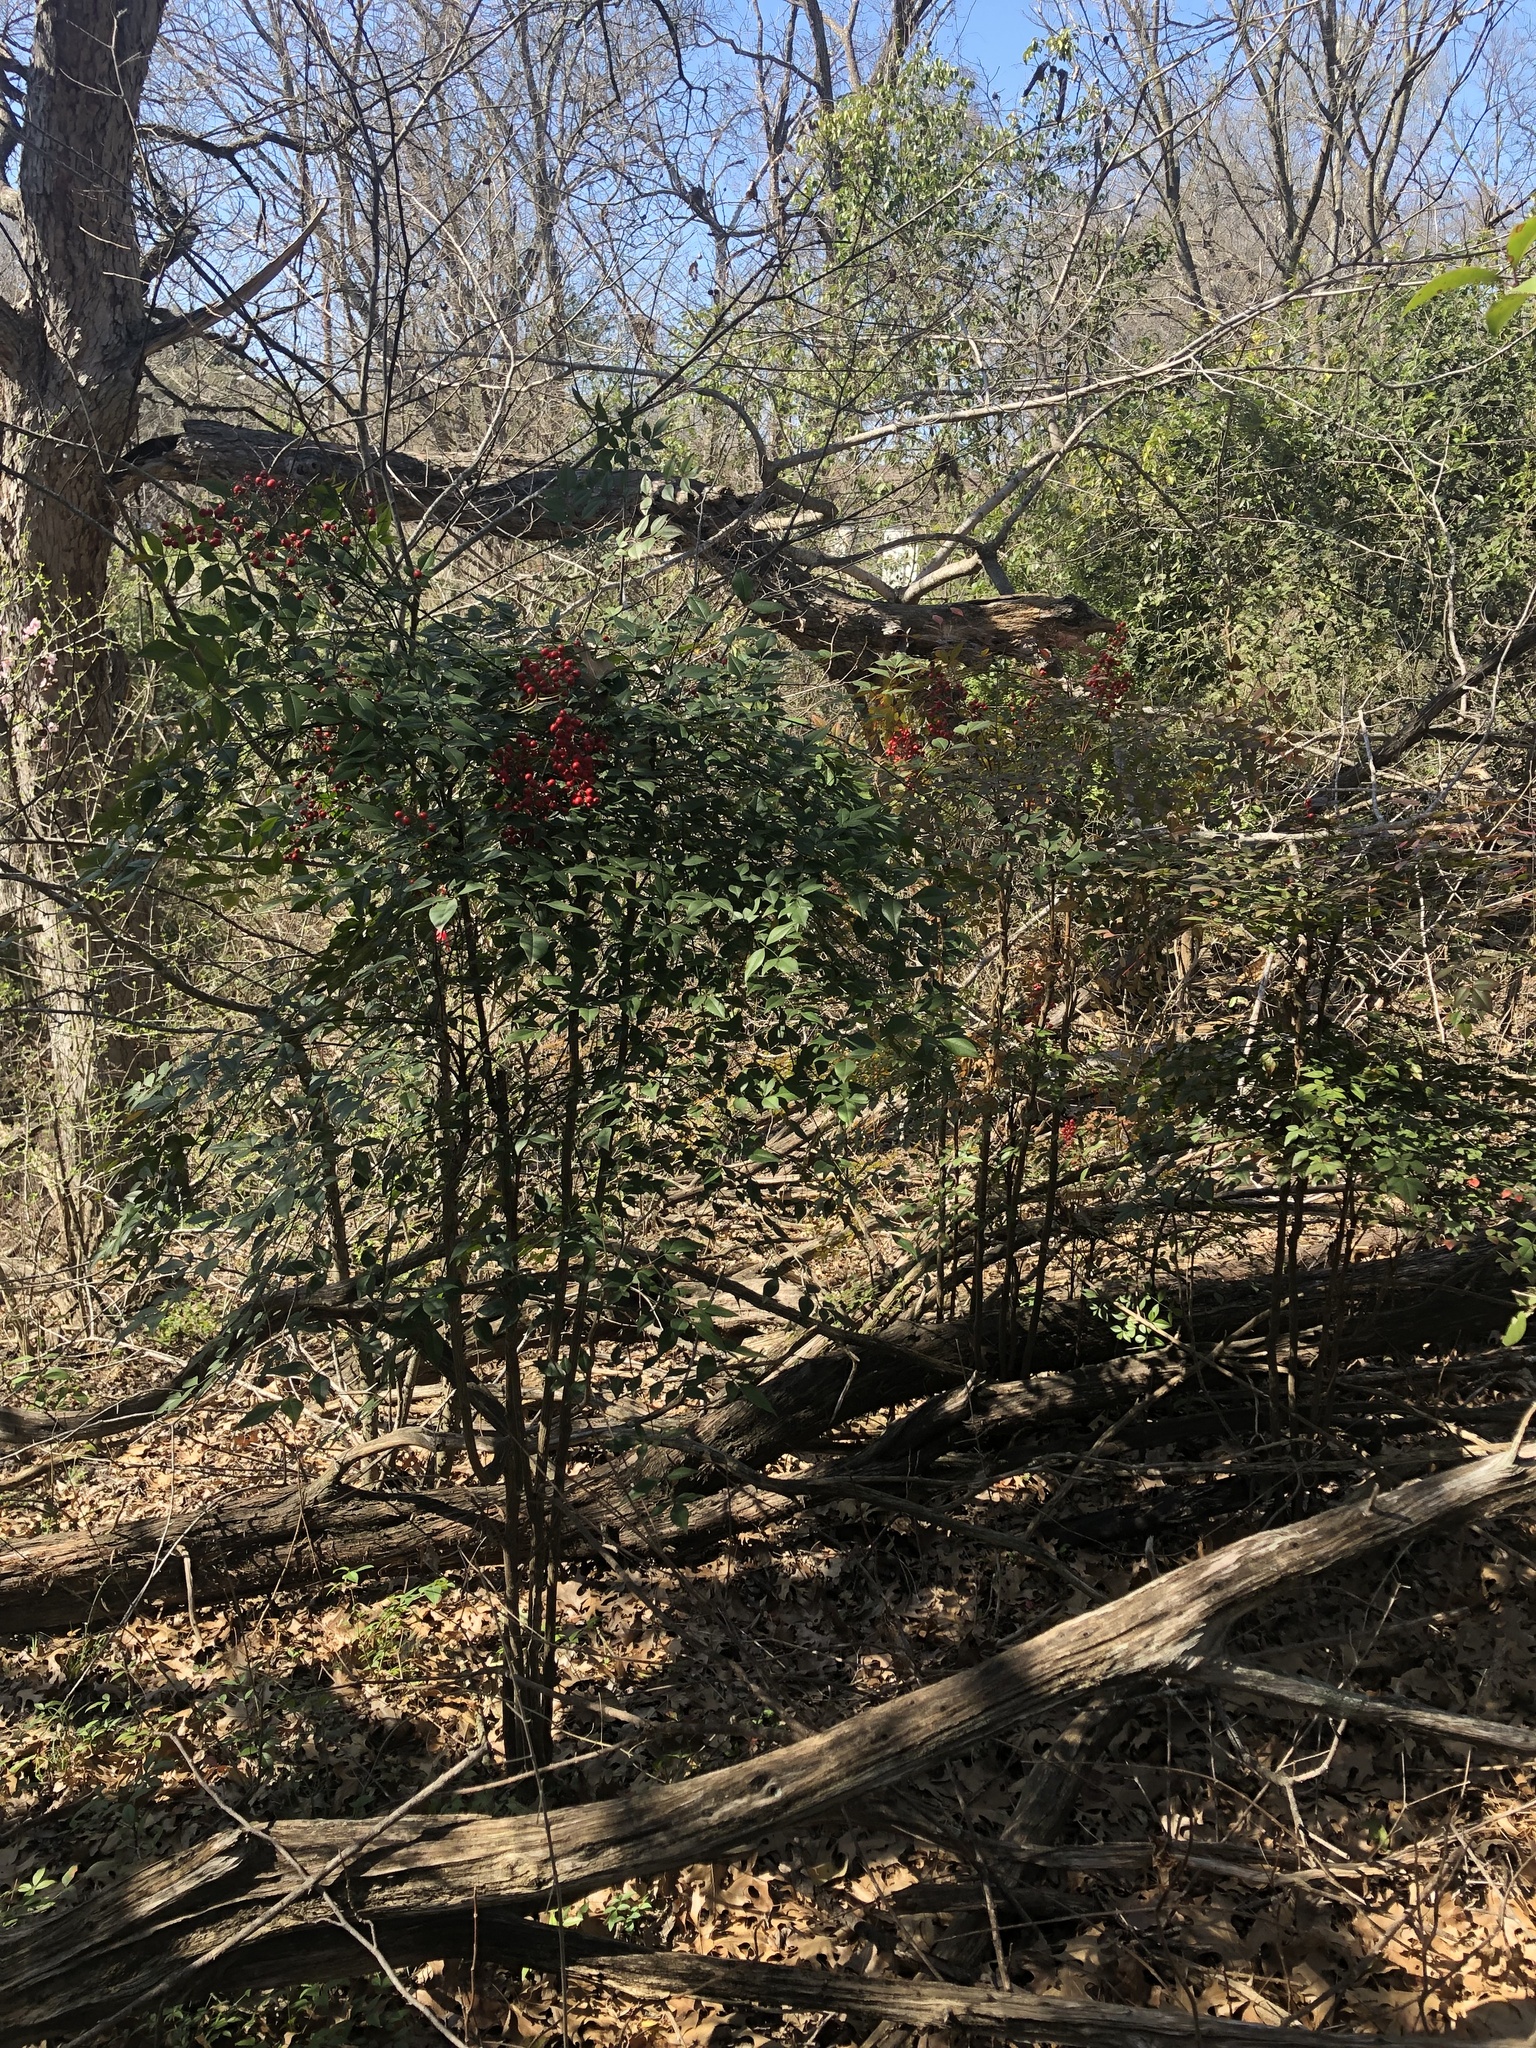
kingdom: Plantae
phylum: Tracheophyta
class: Magnoliopsida
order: Ranunculales
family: Berberidaceae
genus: Nandina
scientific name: Nandina domestica
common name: Sacred bamboo
